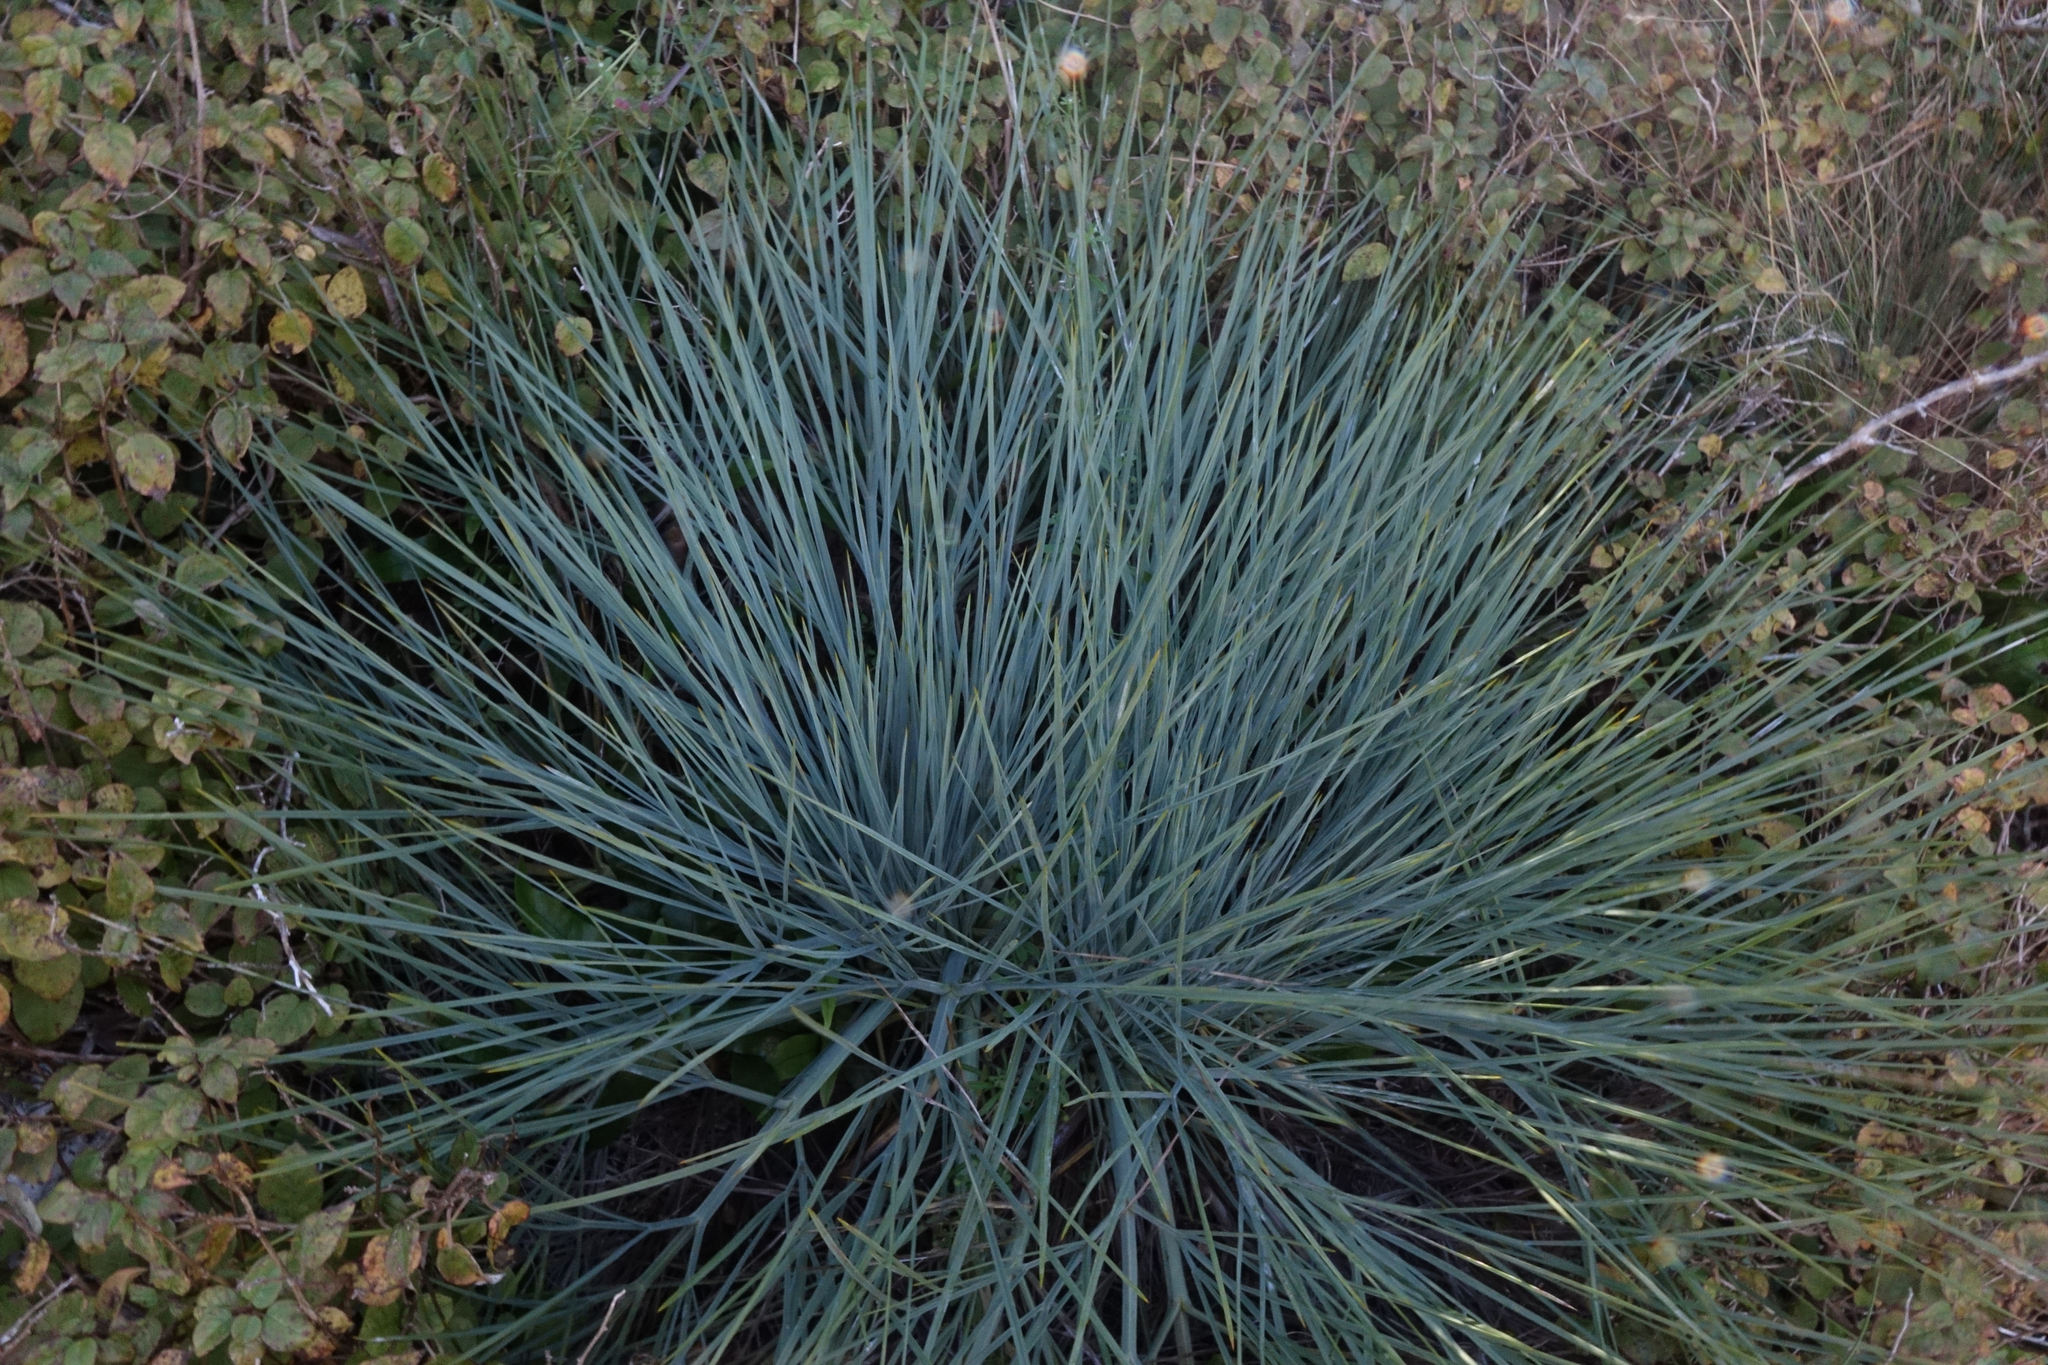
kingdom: Plantae
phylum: Tracheophyta
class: Magnoliopsida
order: Apiales
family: Apiaceae
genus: Aciphylla
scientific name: Aciphylla glaucescens
